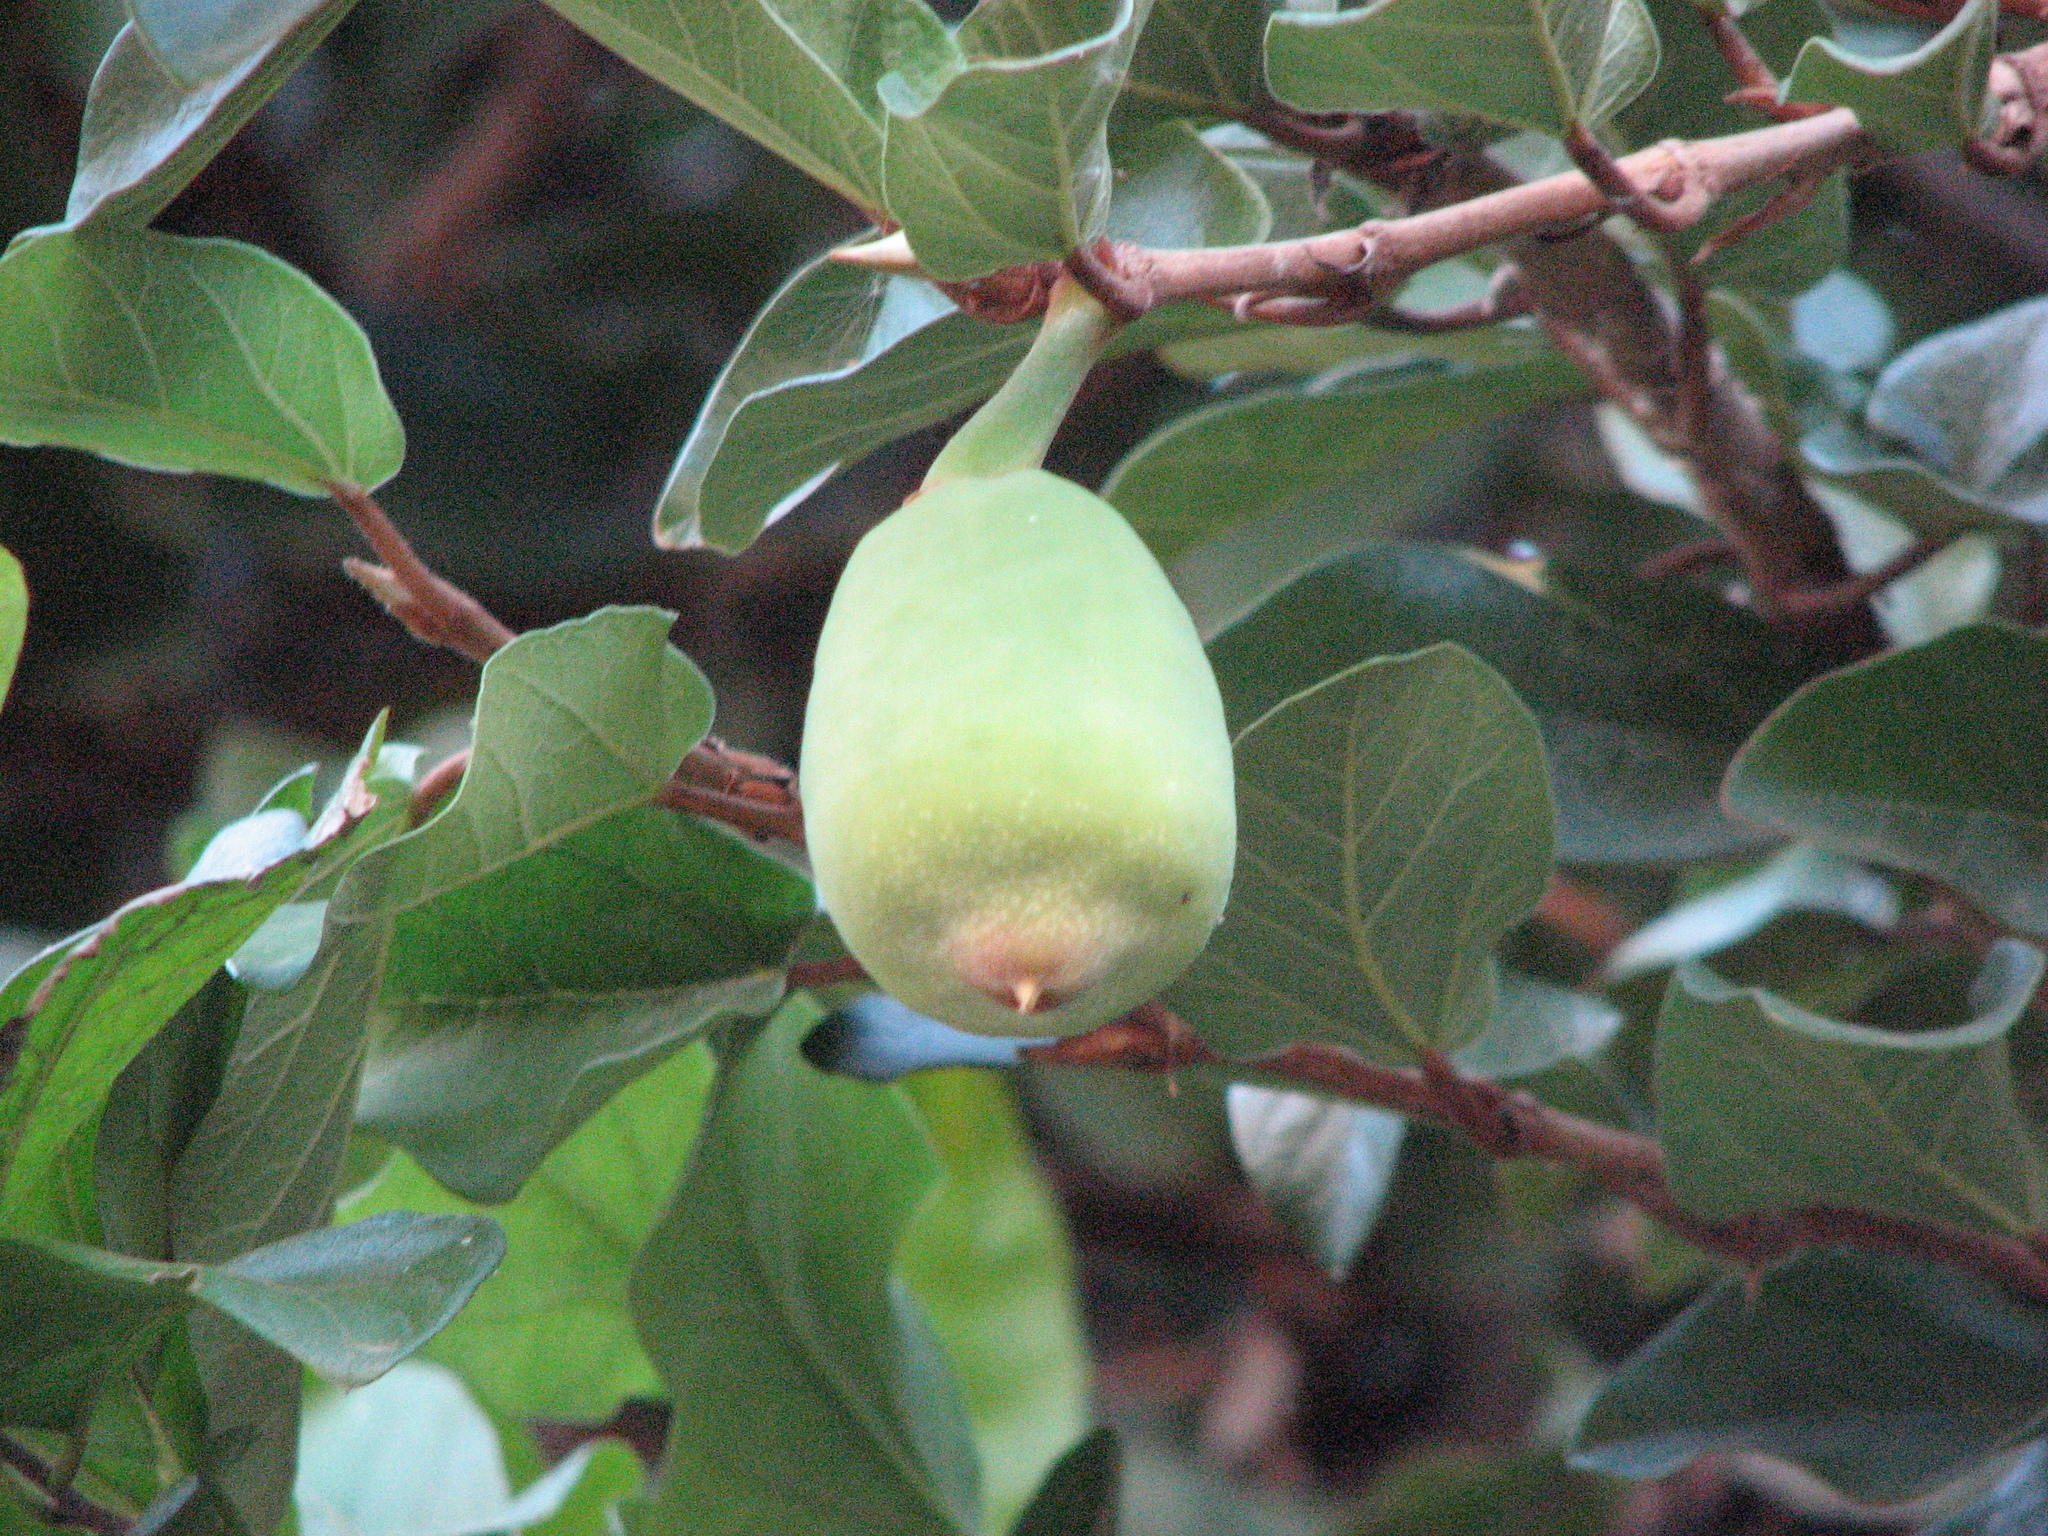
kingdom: Plantae
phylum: Tracheophyta
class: Magnoliopsida
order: Rosales
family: Moraceae
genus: Ficus
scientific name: Ficus pumila
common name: Climbingfig
